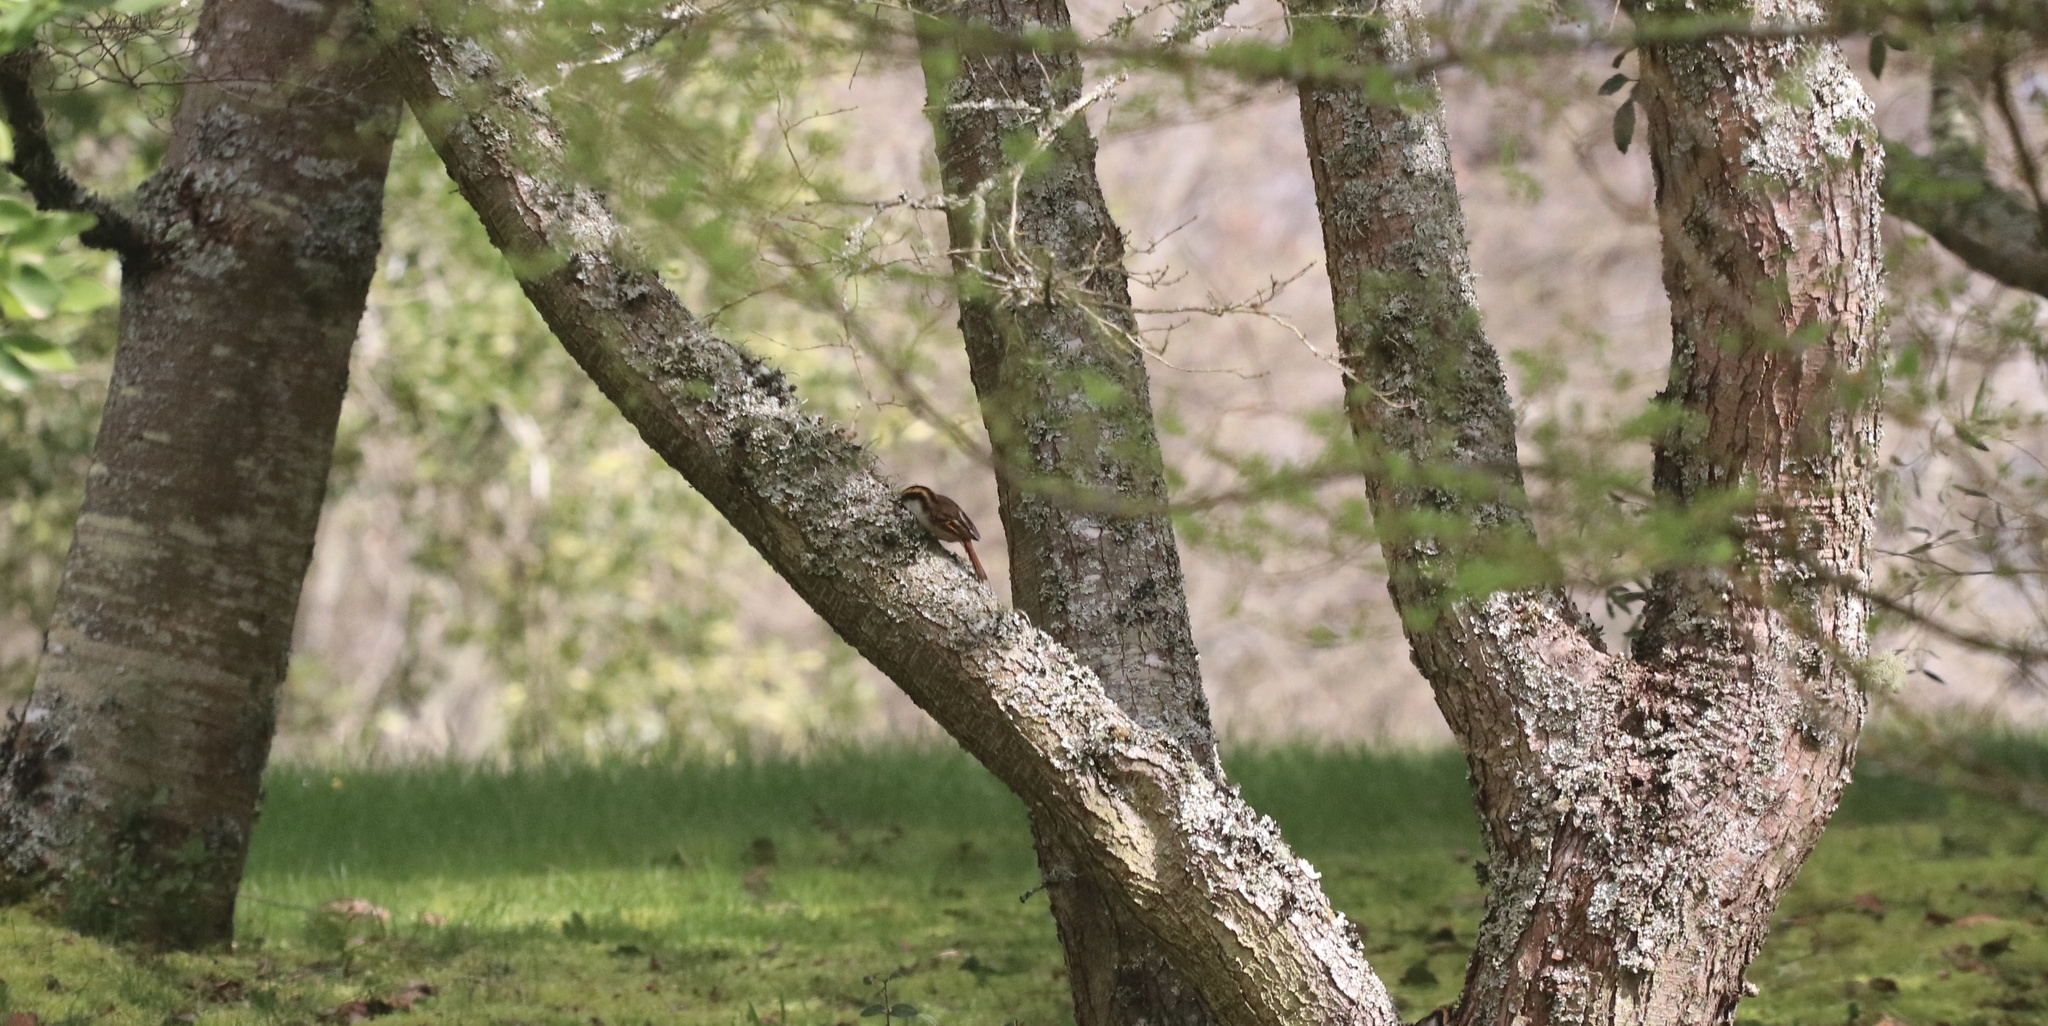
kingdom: Animalia
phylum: Chordata
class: Aves
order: Passeriformes
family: Furnariidae
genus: Aphrastura
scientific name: Aphrastura spinicauda
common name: Thorn-tailed rayadito
